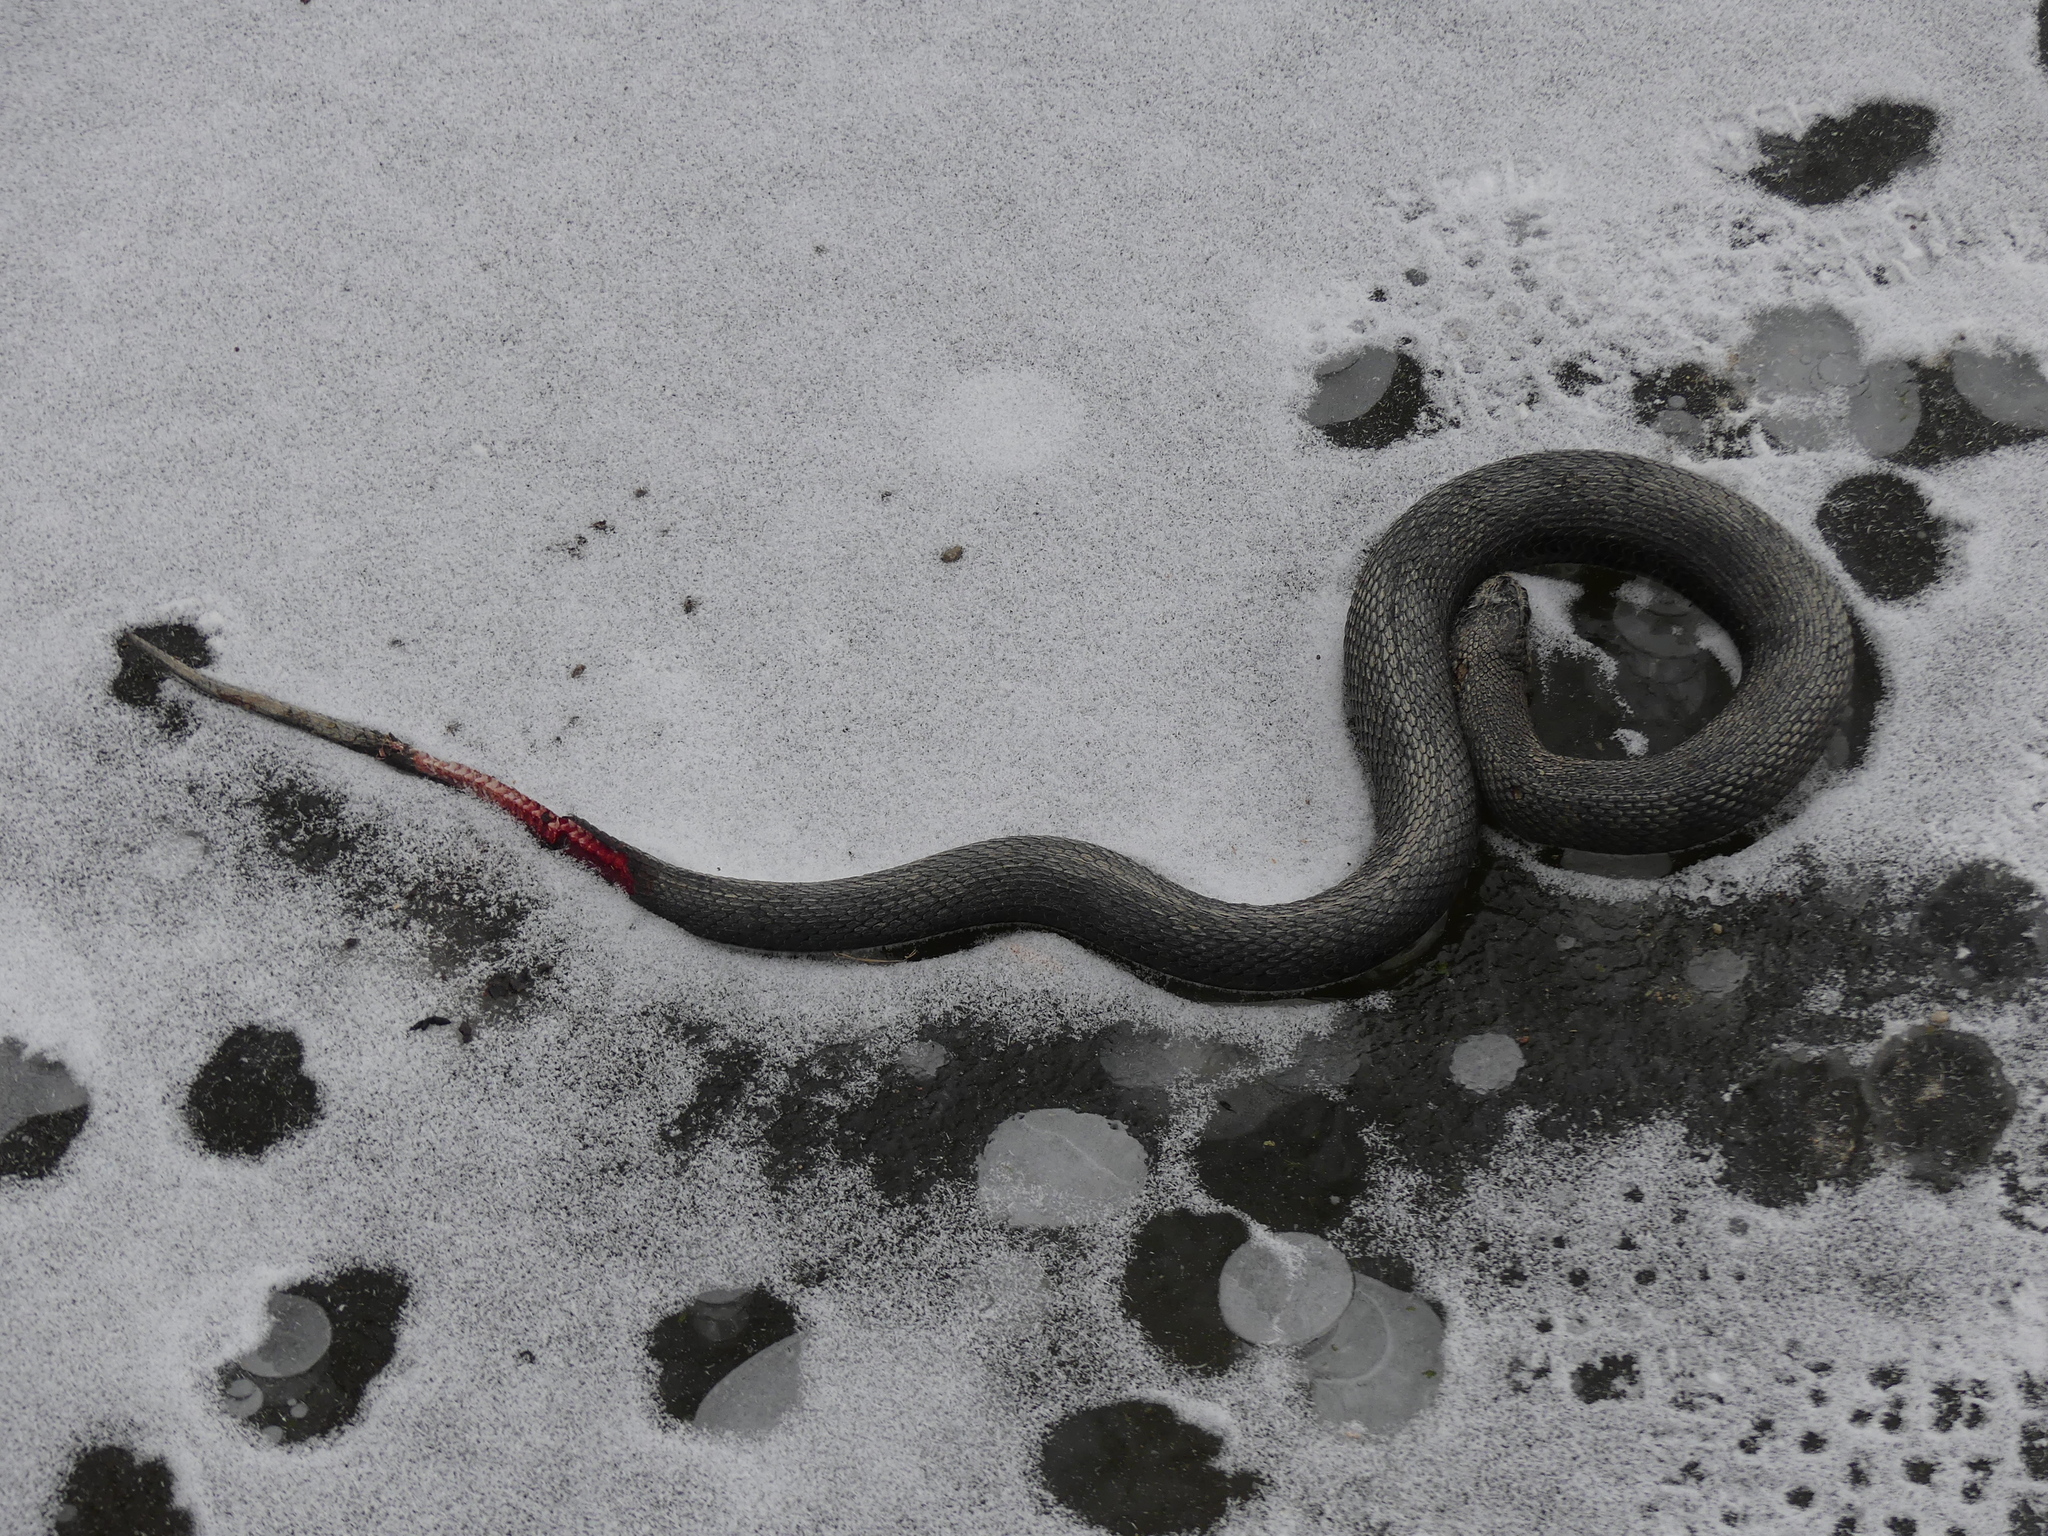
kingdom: Animalia
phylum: Chordata
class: Squamata
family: Colubridae
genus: Nerodia
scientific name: Nerodia sipedon
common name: Northern water snake
